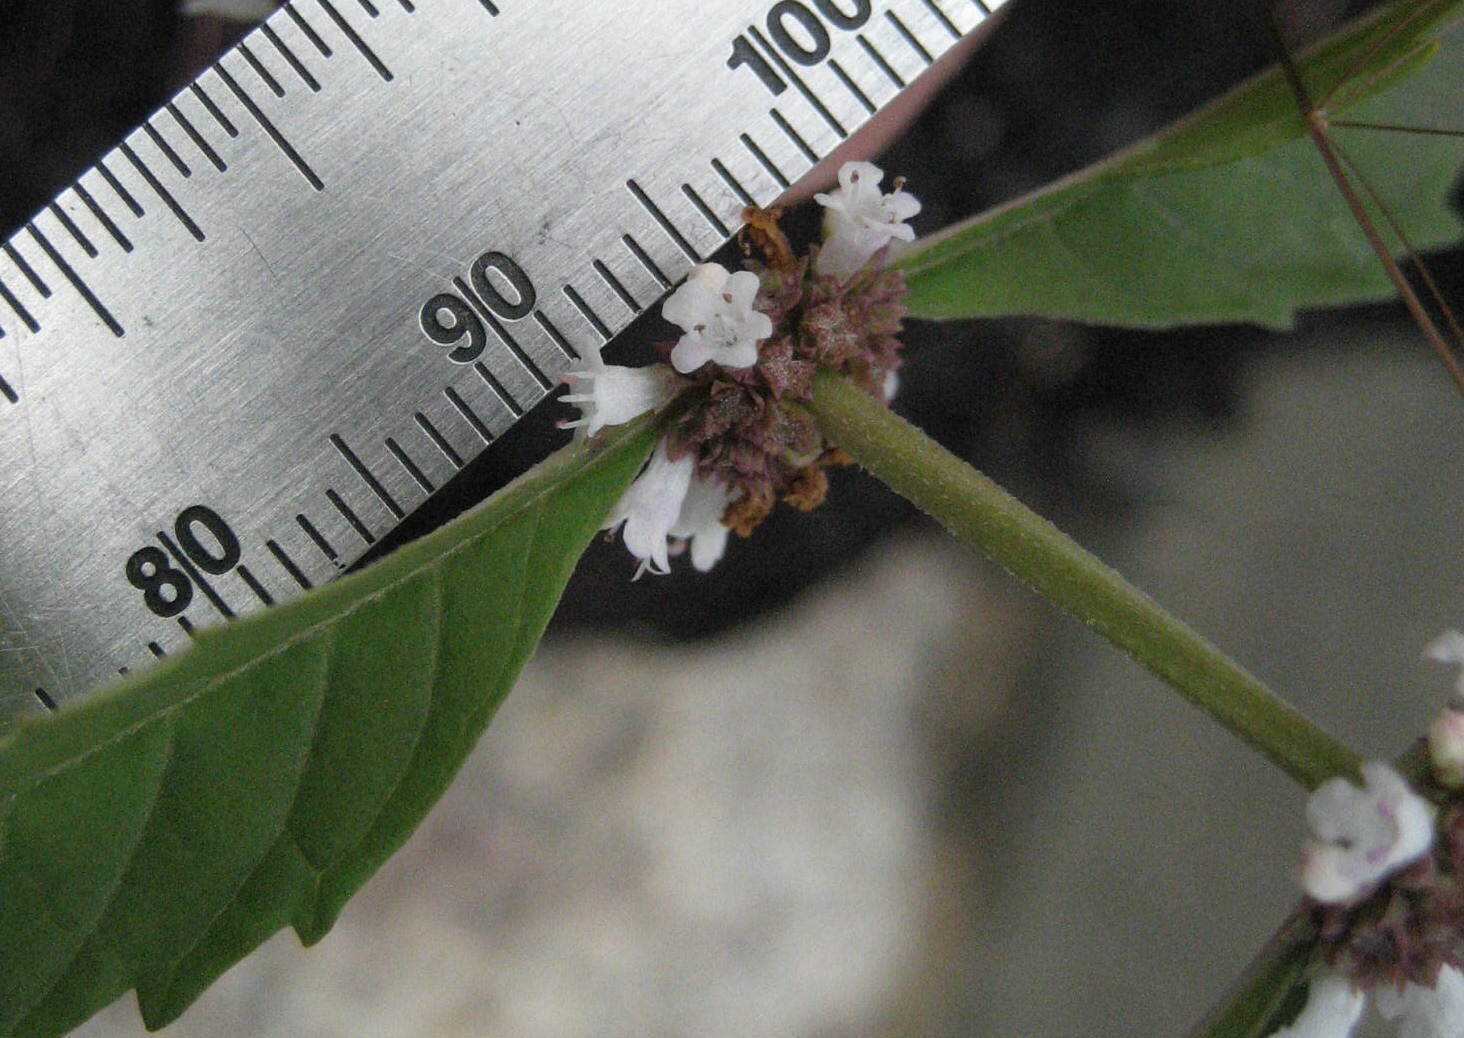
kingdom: Plantae
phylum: Tracheophyta
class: Magnoliopsida
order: Lamiales
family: Lamiaceae
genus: Lycopus
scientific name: Lycopus uniflorus
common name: Northern bugleweed
